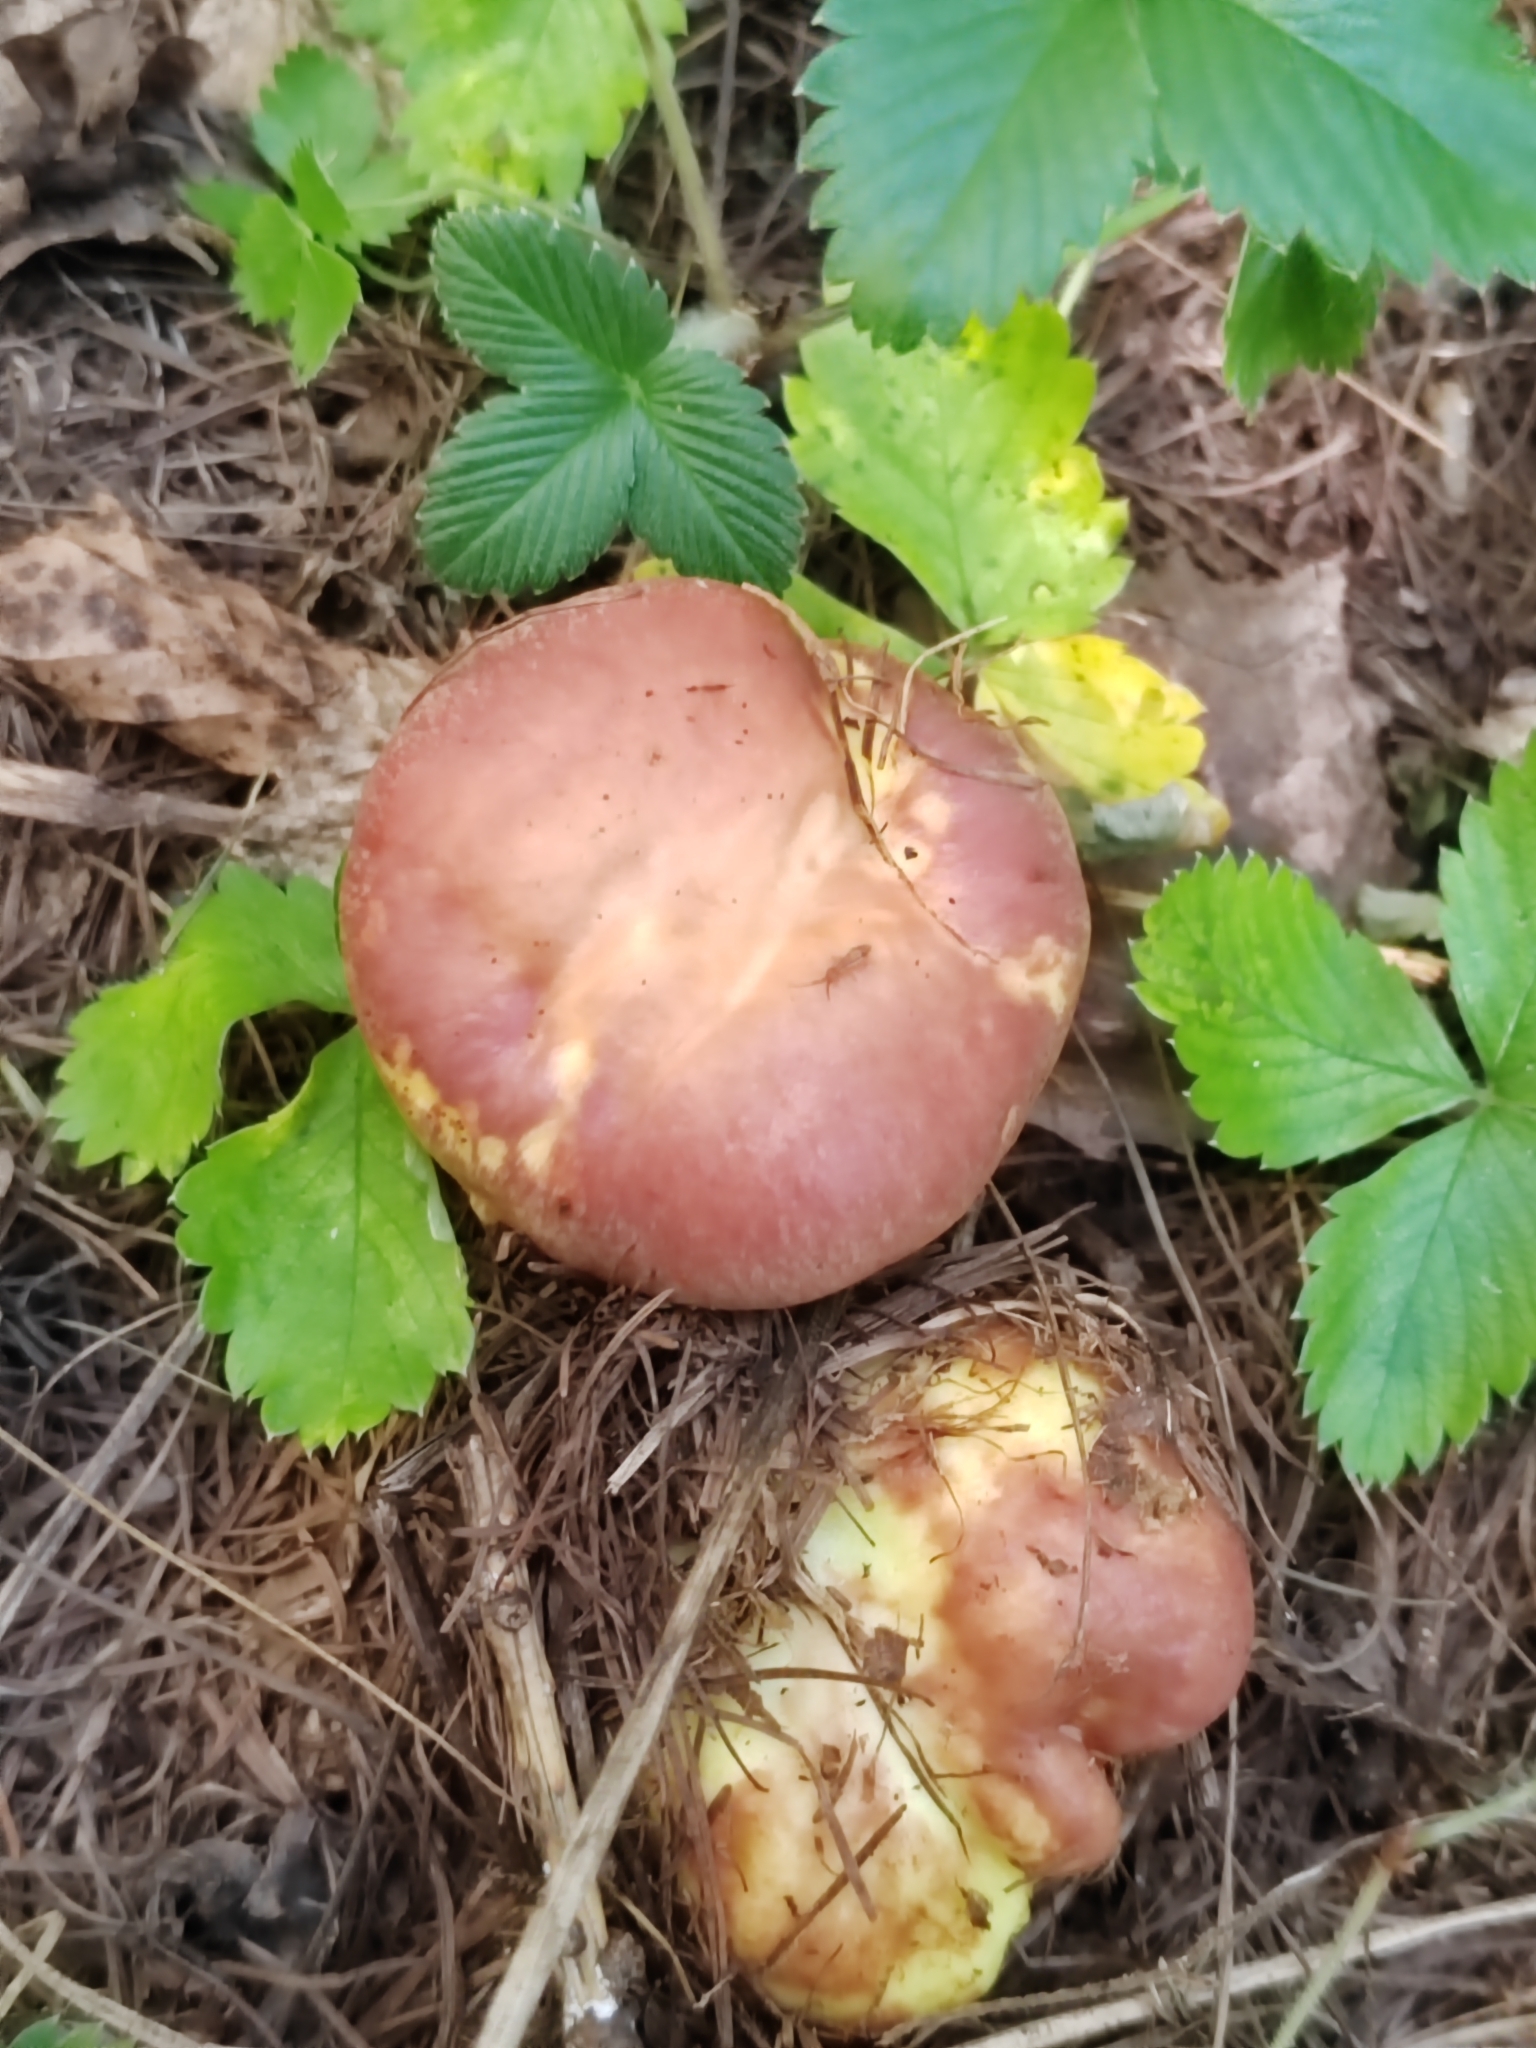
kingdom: Fungi
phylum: Basidiomycota
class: Agaricomycetes
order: Boletales
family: Suillaceae
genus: Suillus
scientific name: Suillus grevillei
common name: Larch bolete
